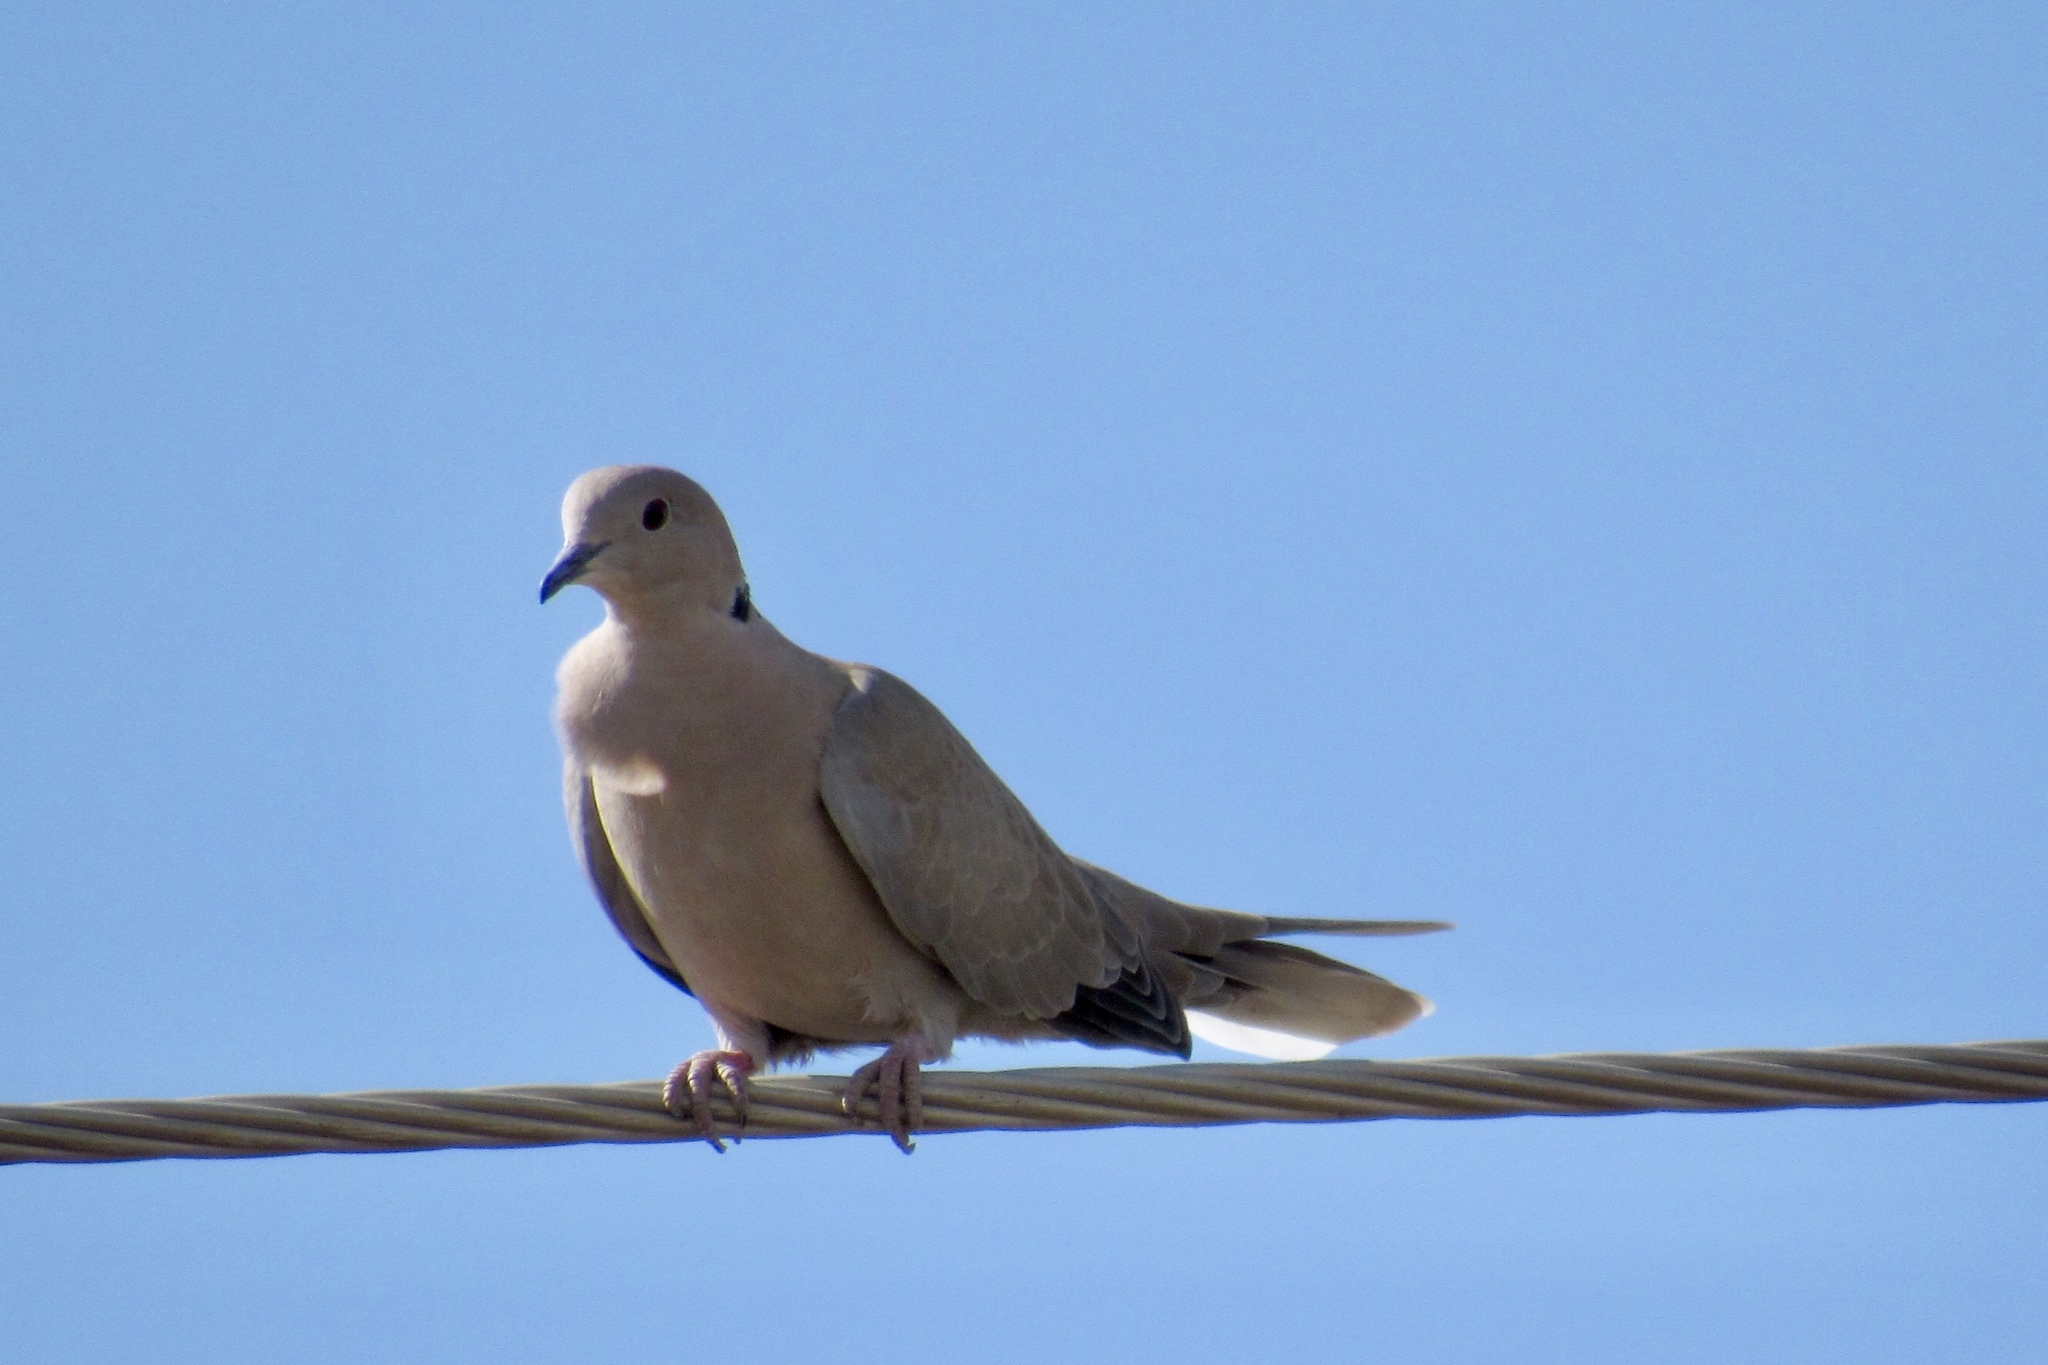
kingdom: Animalia
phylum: Chordata
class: Aves
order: Columbiformes
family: Columbidae
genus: Streptopelia
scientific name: Streptopelia decaocto
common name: Eurasian collared dove
